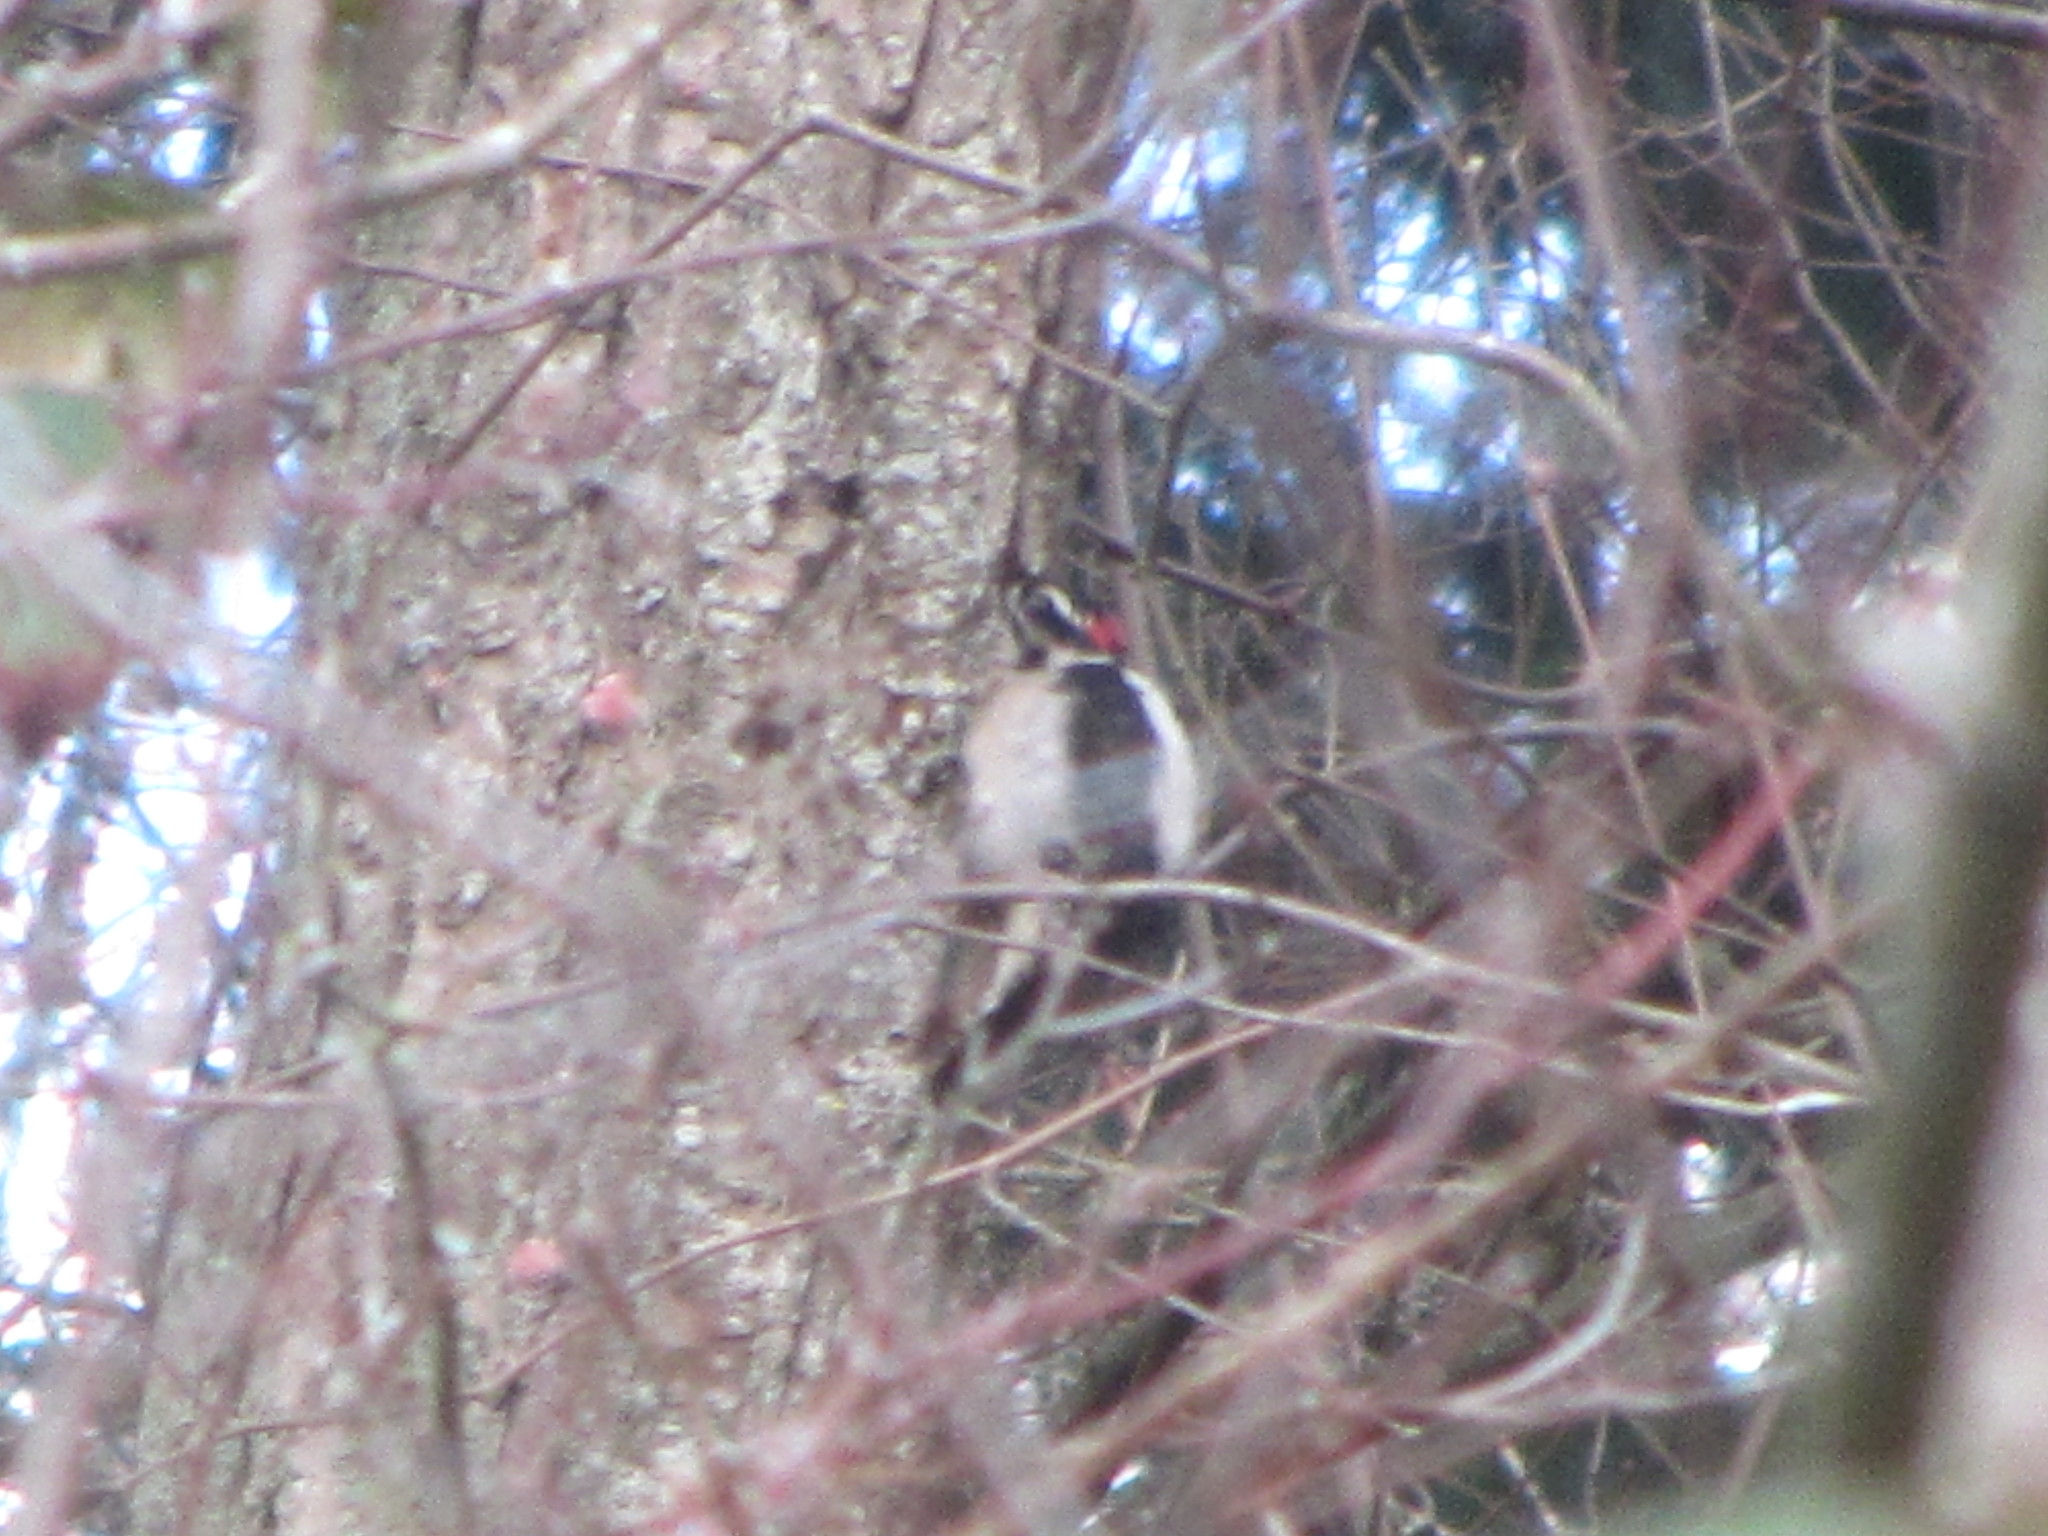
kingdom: Animalia
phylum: Chordata
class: Aves
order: Piciformes
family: Picidae
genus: Dryobates
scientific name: Dryobates pubescens
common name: Downy woodpecker
